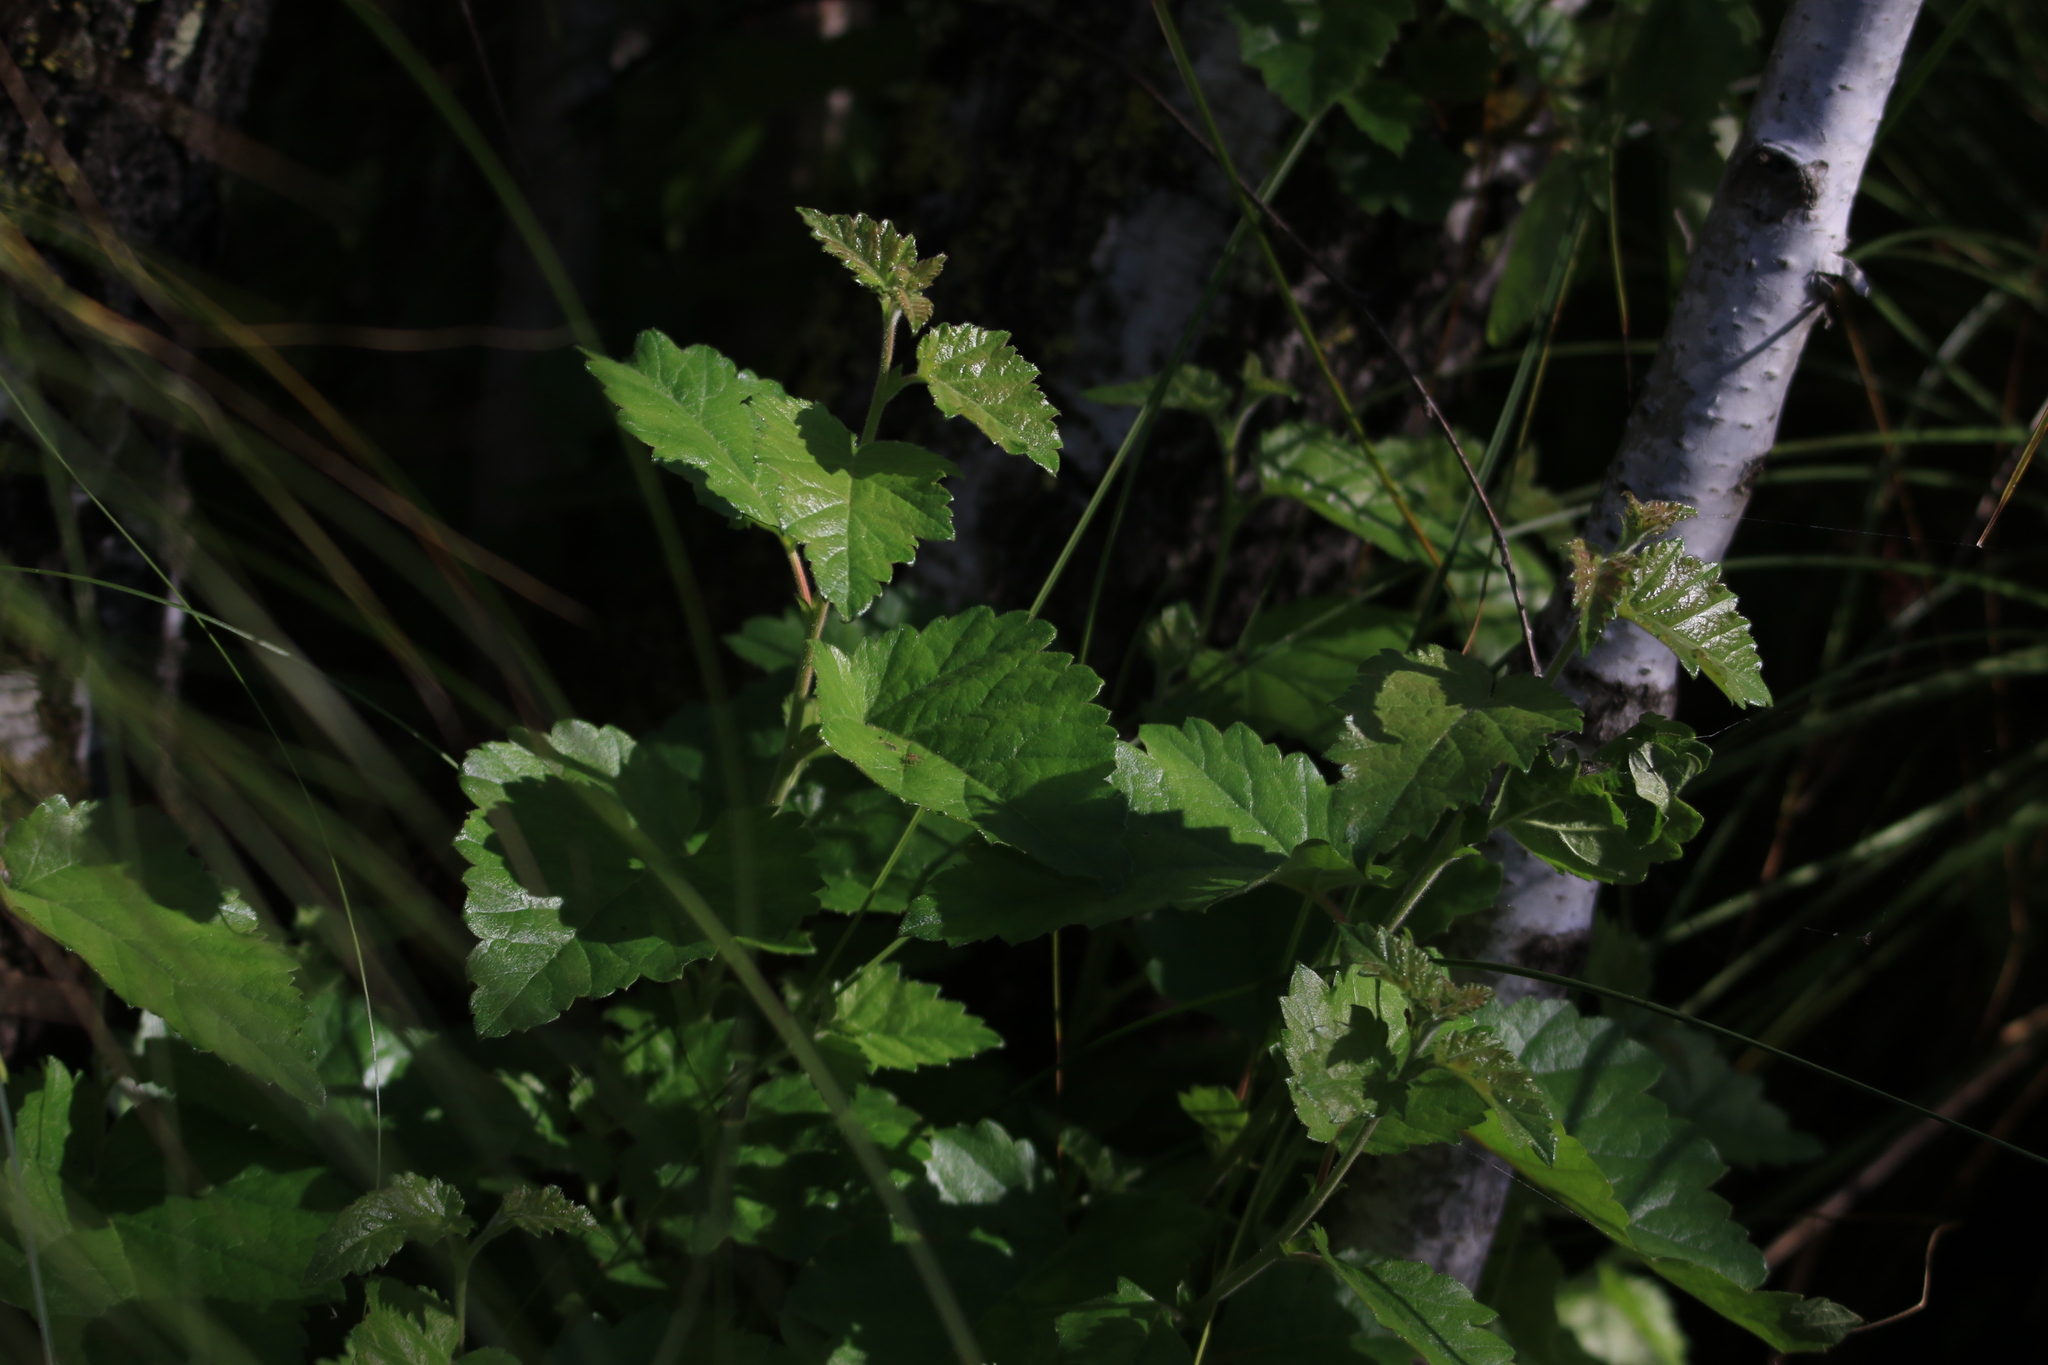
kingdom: Plantae
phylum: Tracheophyta
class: Magnoliopsida
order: Fagales
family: Betulaceae
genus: Betula
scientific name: Betula pubescens
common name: Downy birch
